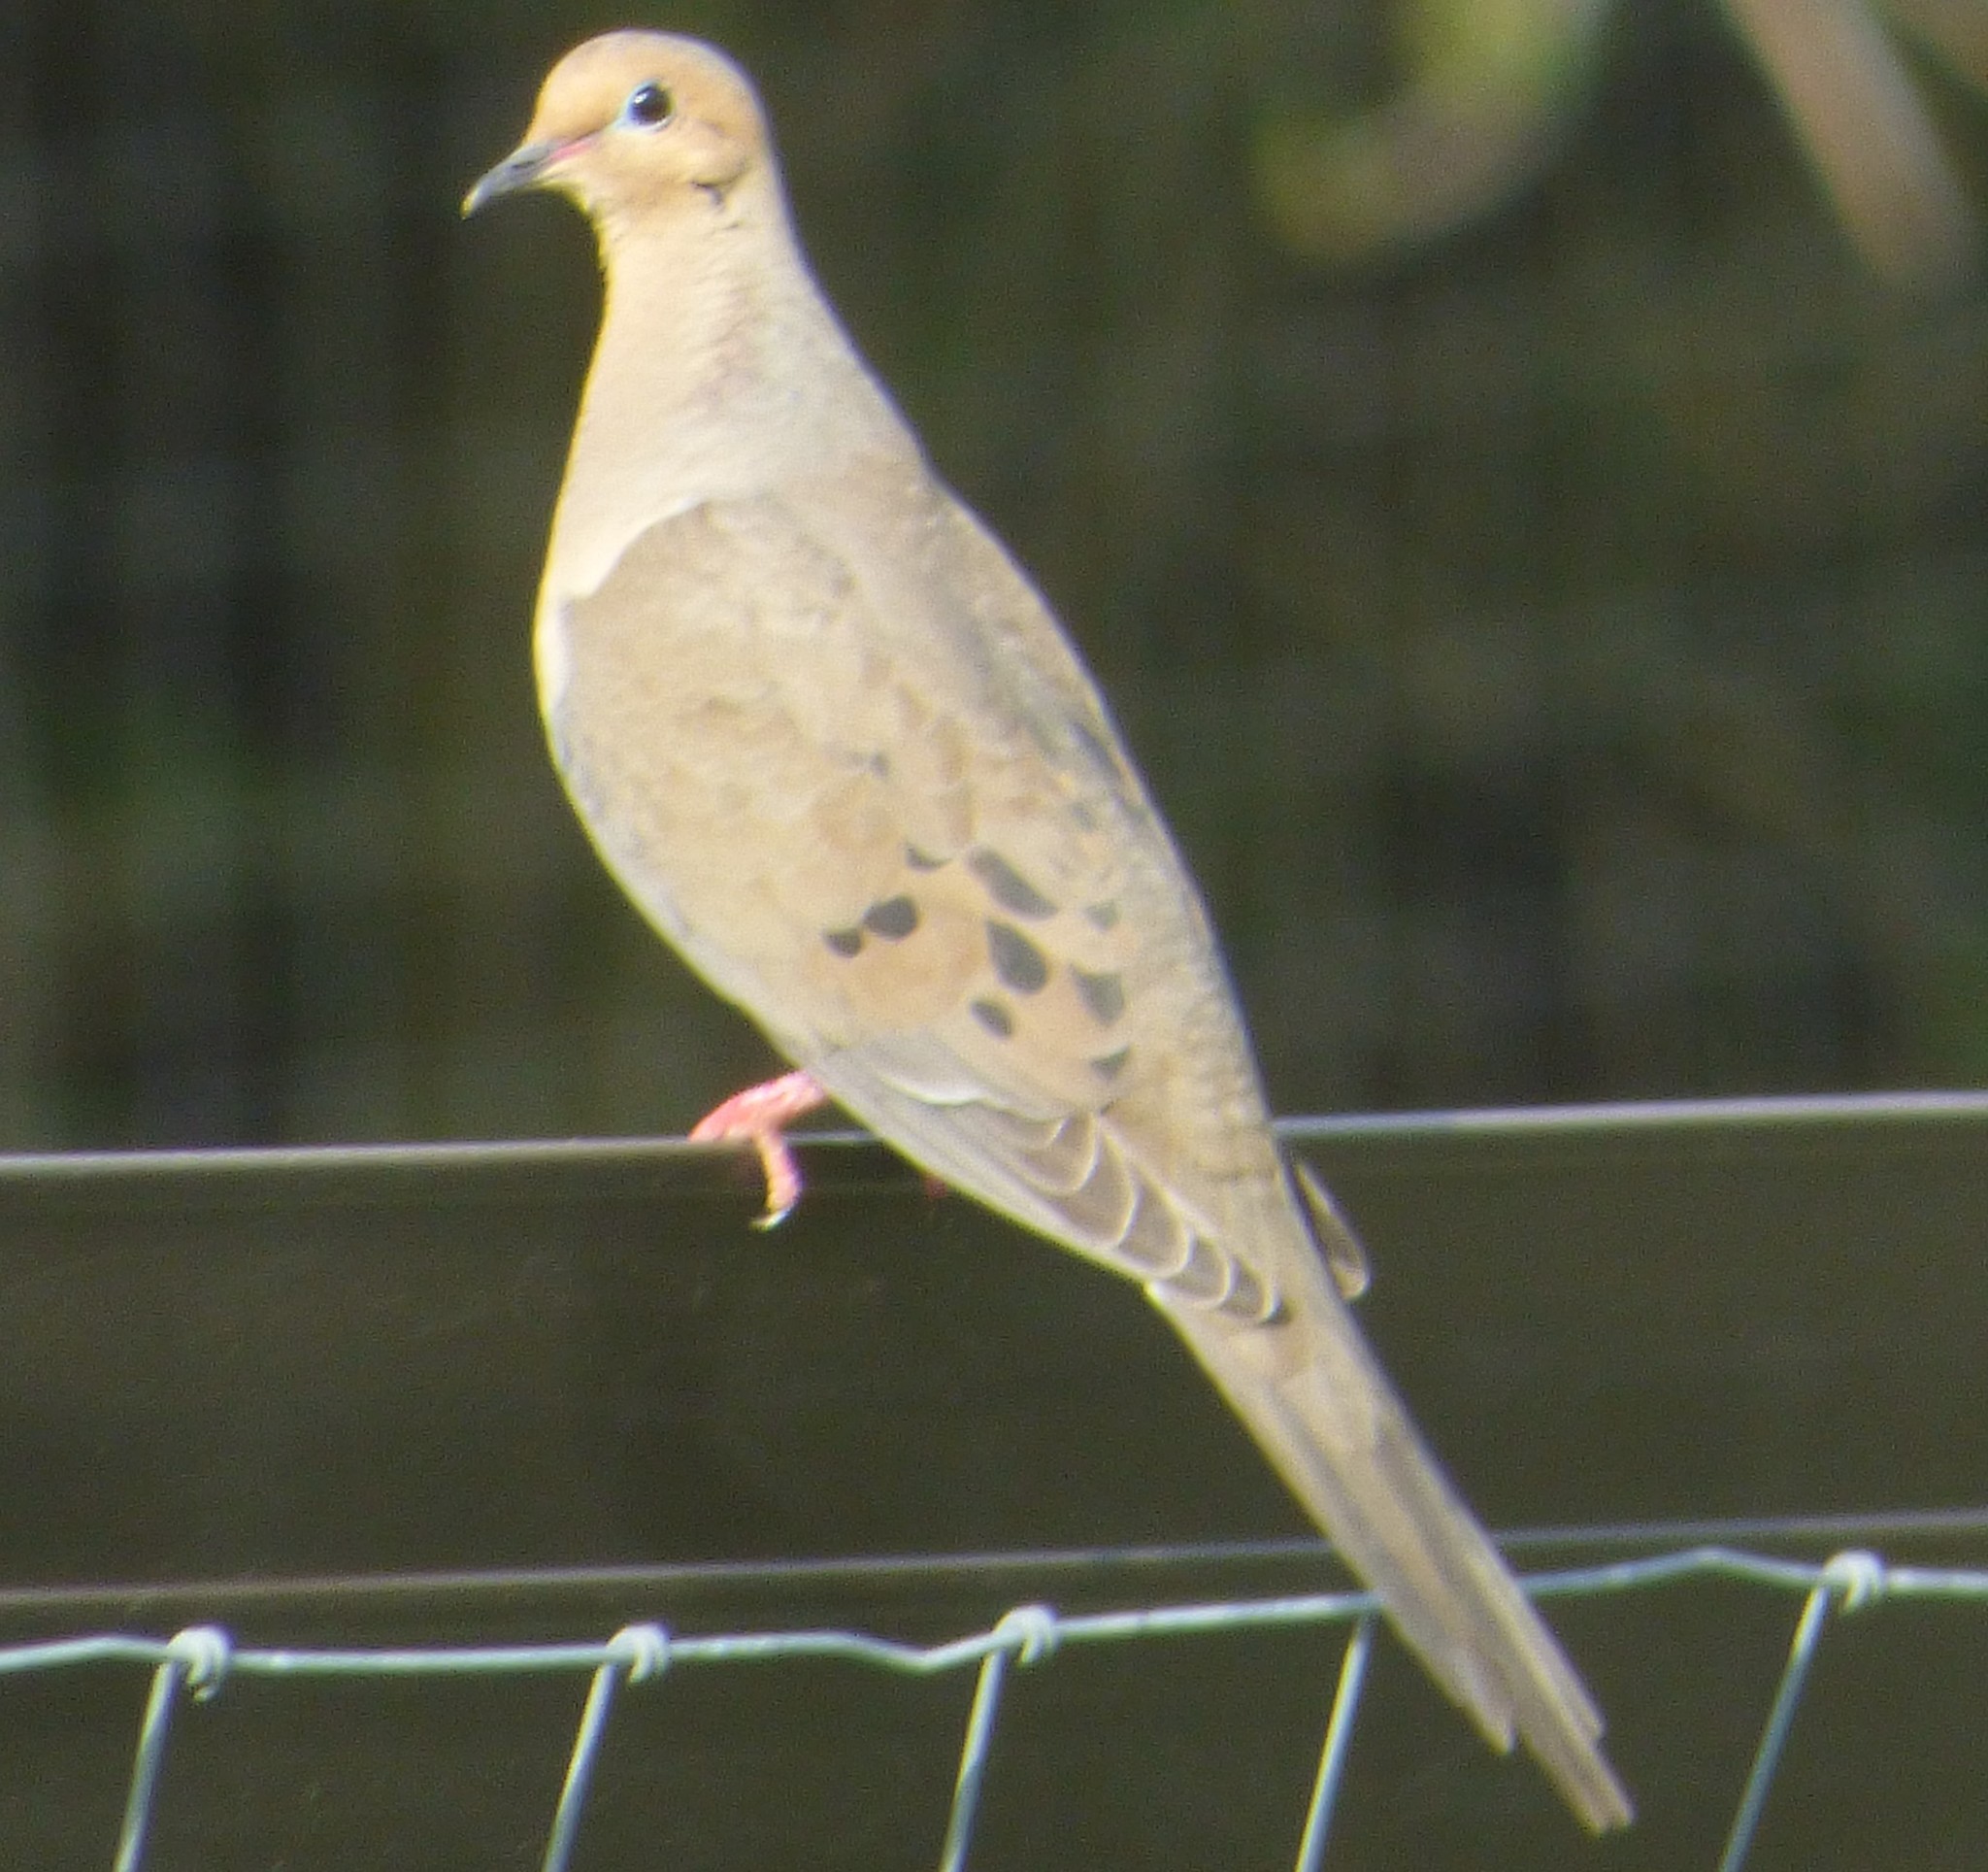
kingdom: Animalia
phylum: Chordata
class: Aves
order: Columbiformes
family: Columbidae
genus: Zenaida
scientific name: Zenaida macroura
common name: Mourning dove
